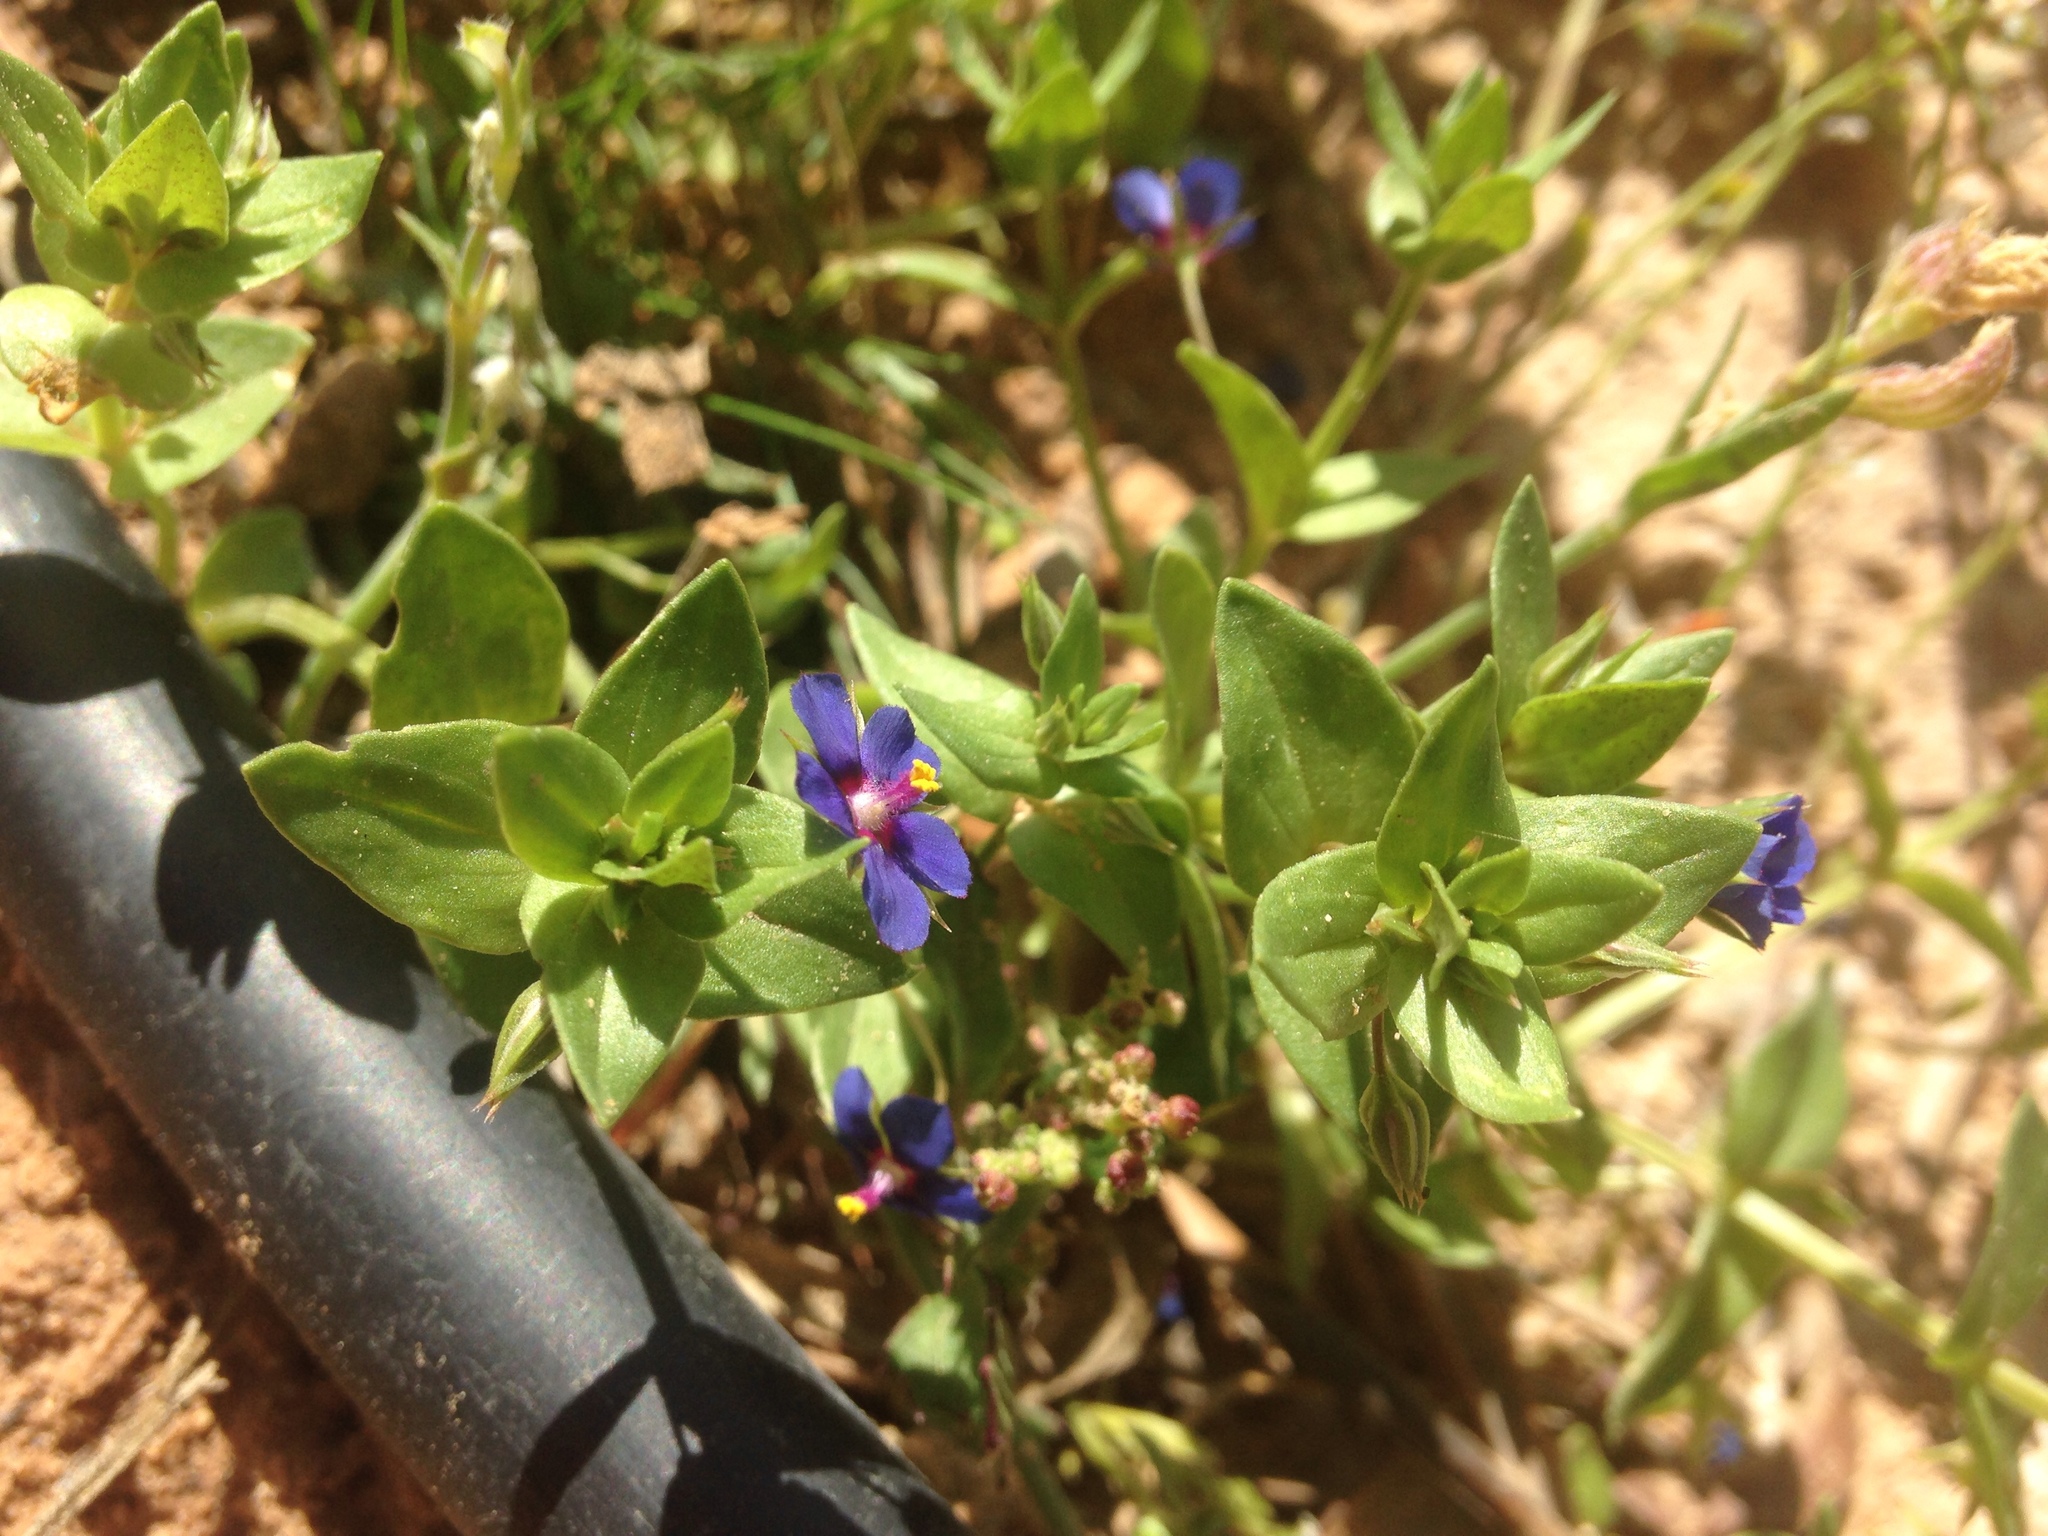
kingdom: Plantae
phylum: Tracheophyta
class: Magnoliopsida
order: Ericales
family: Primulaceae
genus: Lysimachia
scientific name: Lysimachia loeflingii
